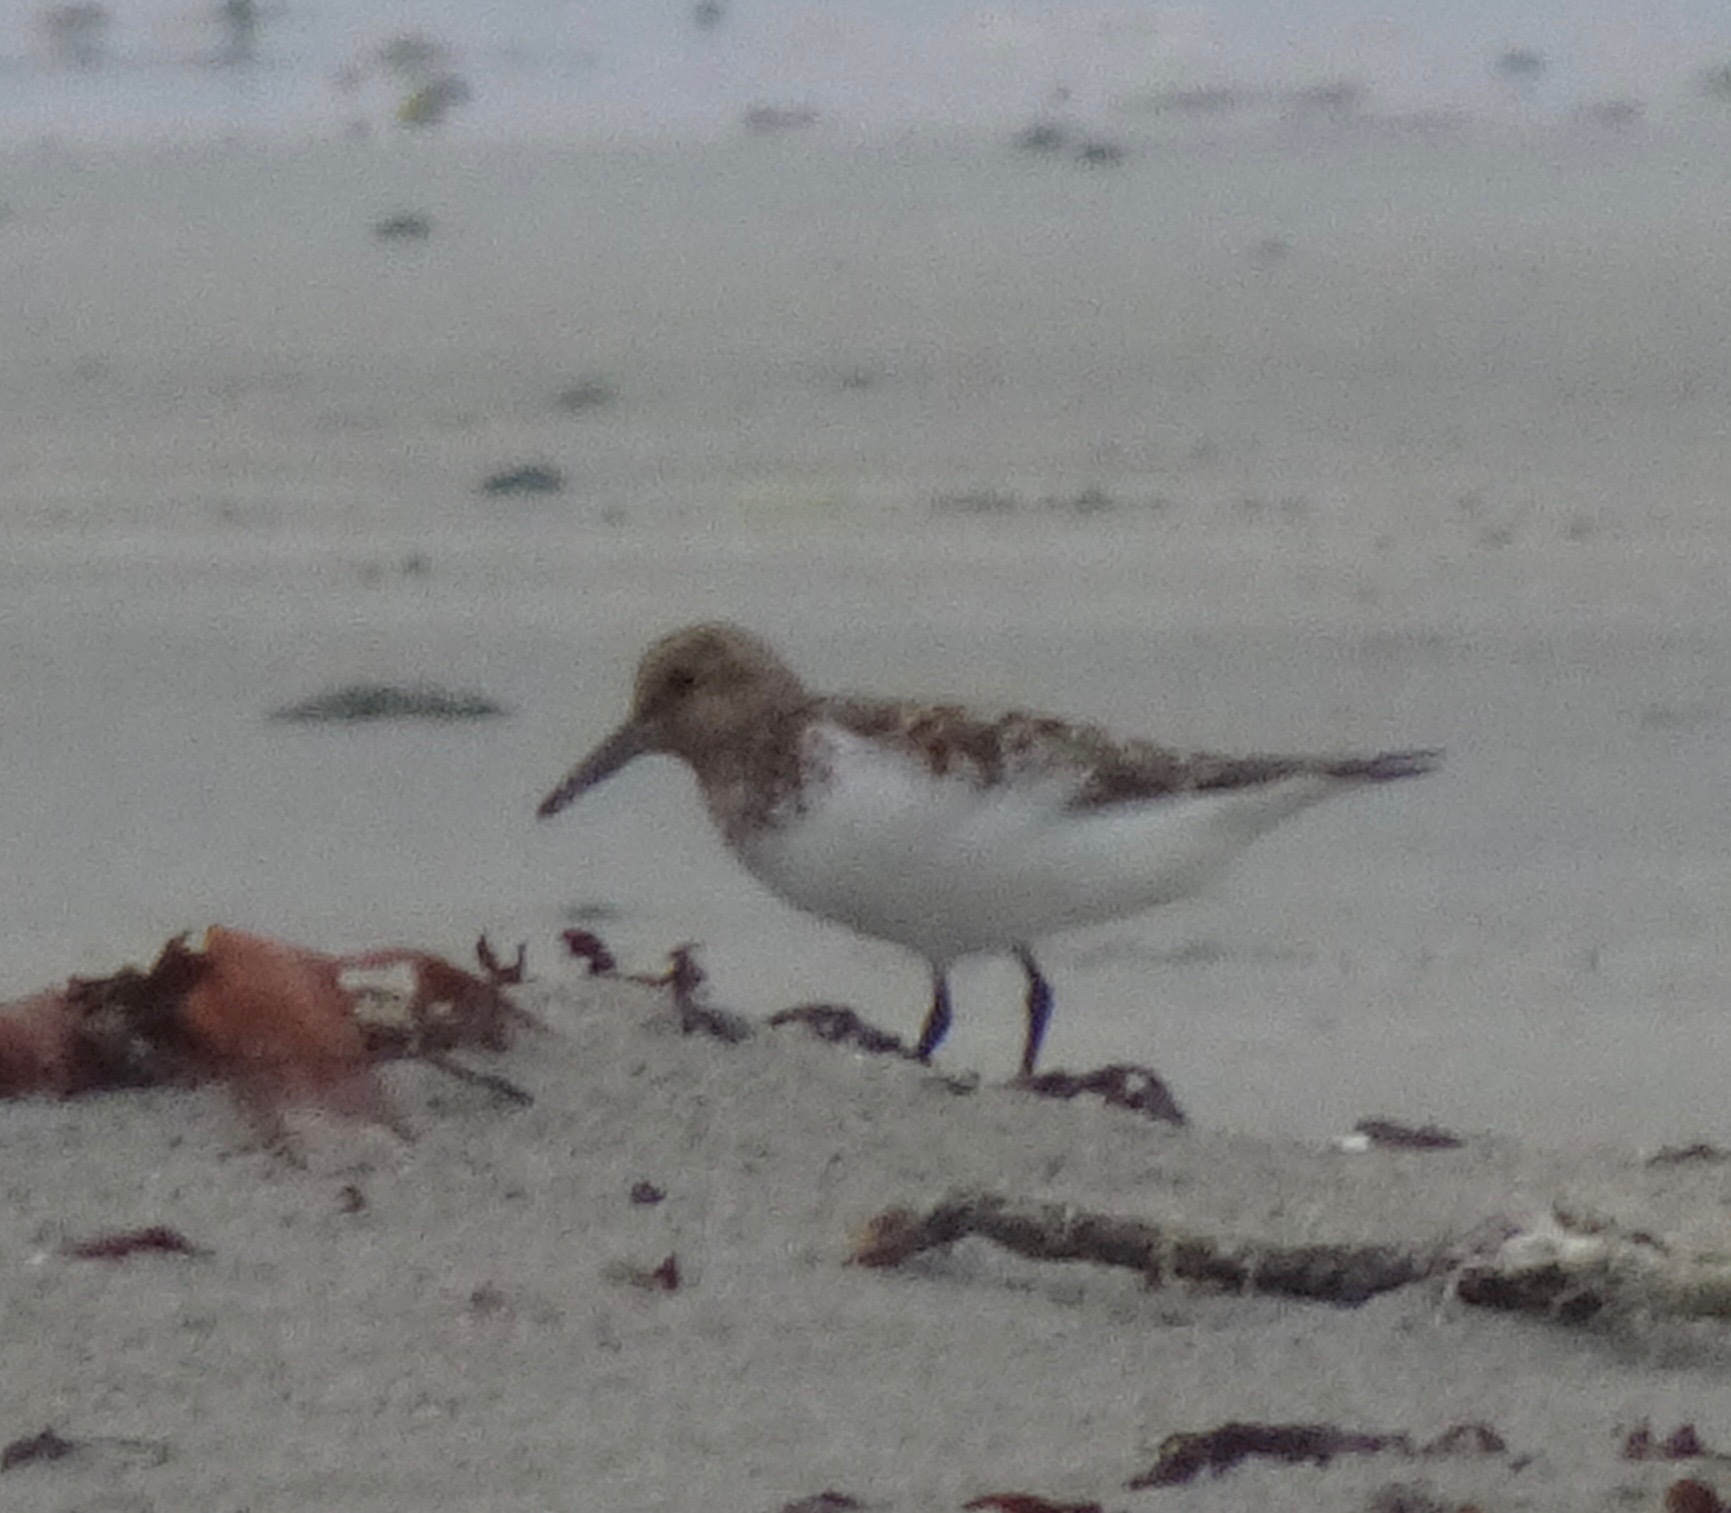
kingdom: Animalia
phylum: Chordata
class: Aves
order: Charadriiformes
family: Scolopacidae
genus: Calidris
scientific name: Calidris alba
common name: Sanderling
